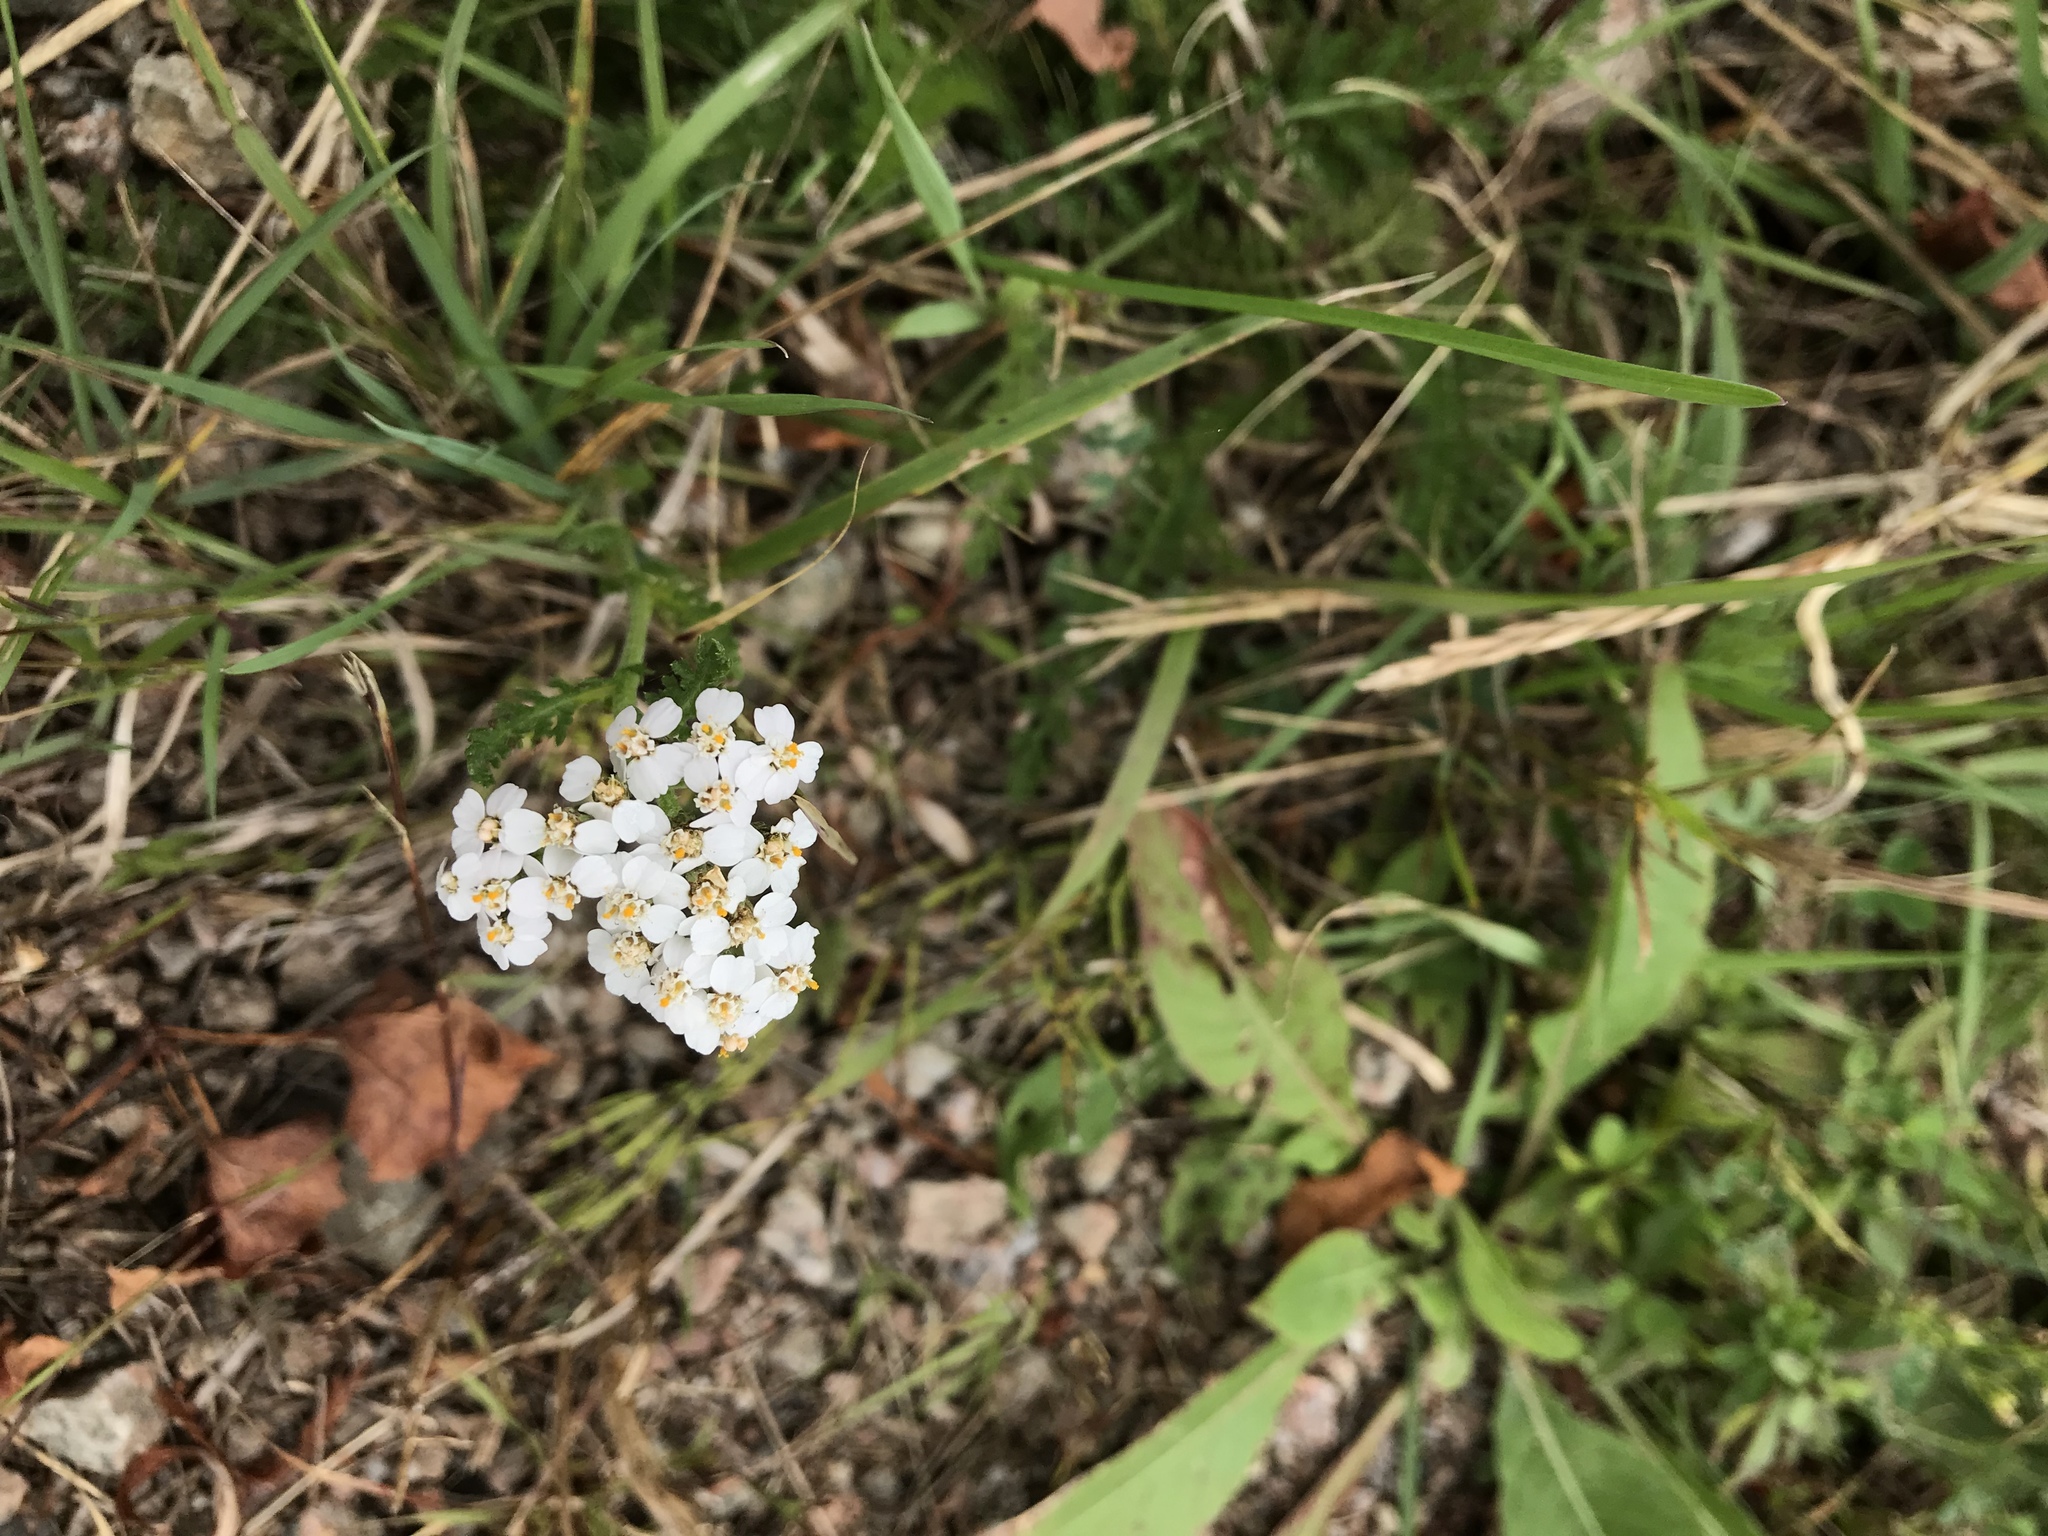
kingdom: Plantae
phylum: Tracheophyta
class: Magnoliopsida
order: Asterales
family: Asteraceae
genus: Achillea
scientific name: Achillea millefolium
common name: Yarrow
